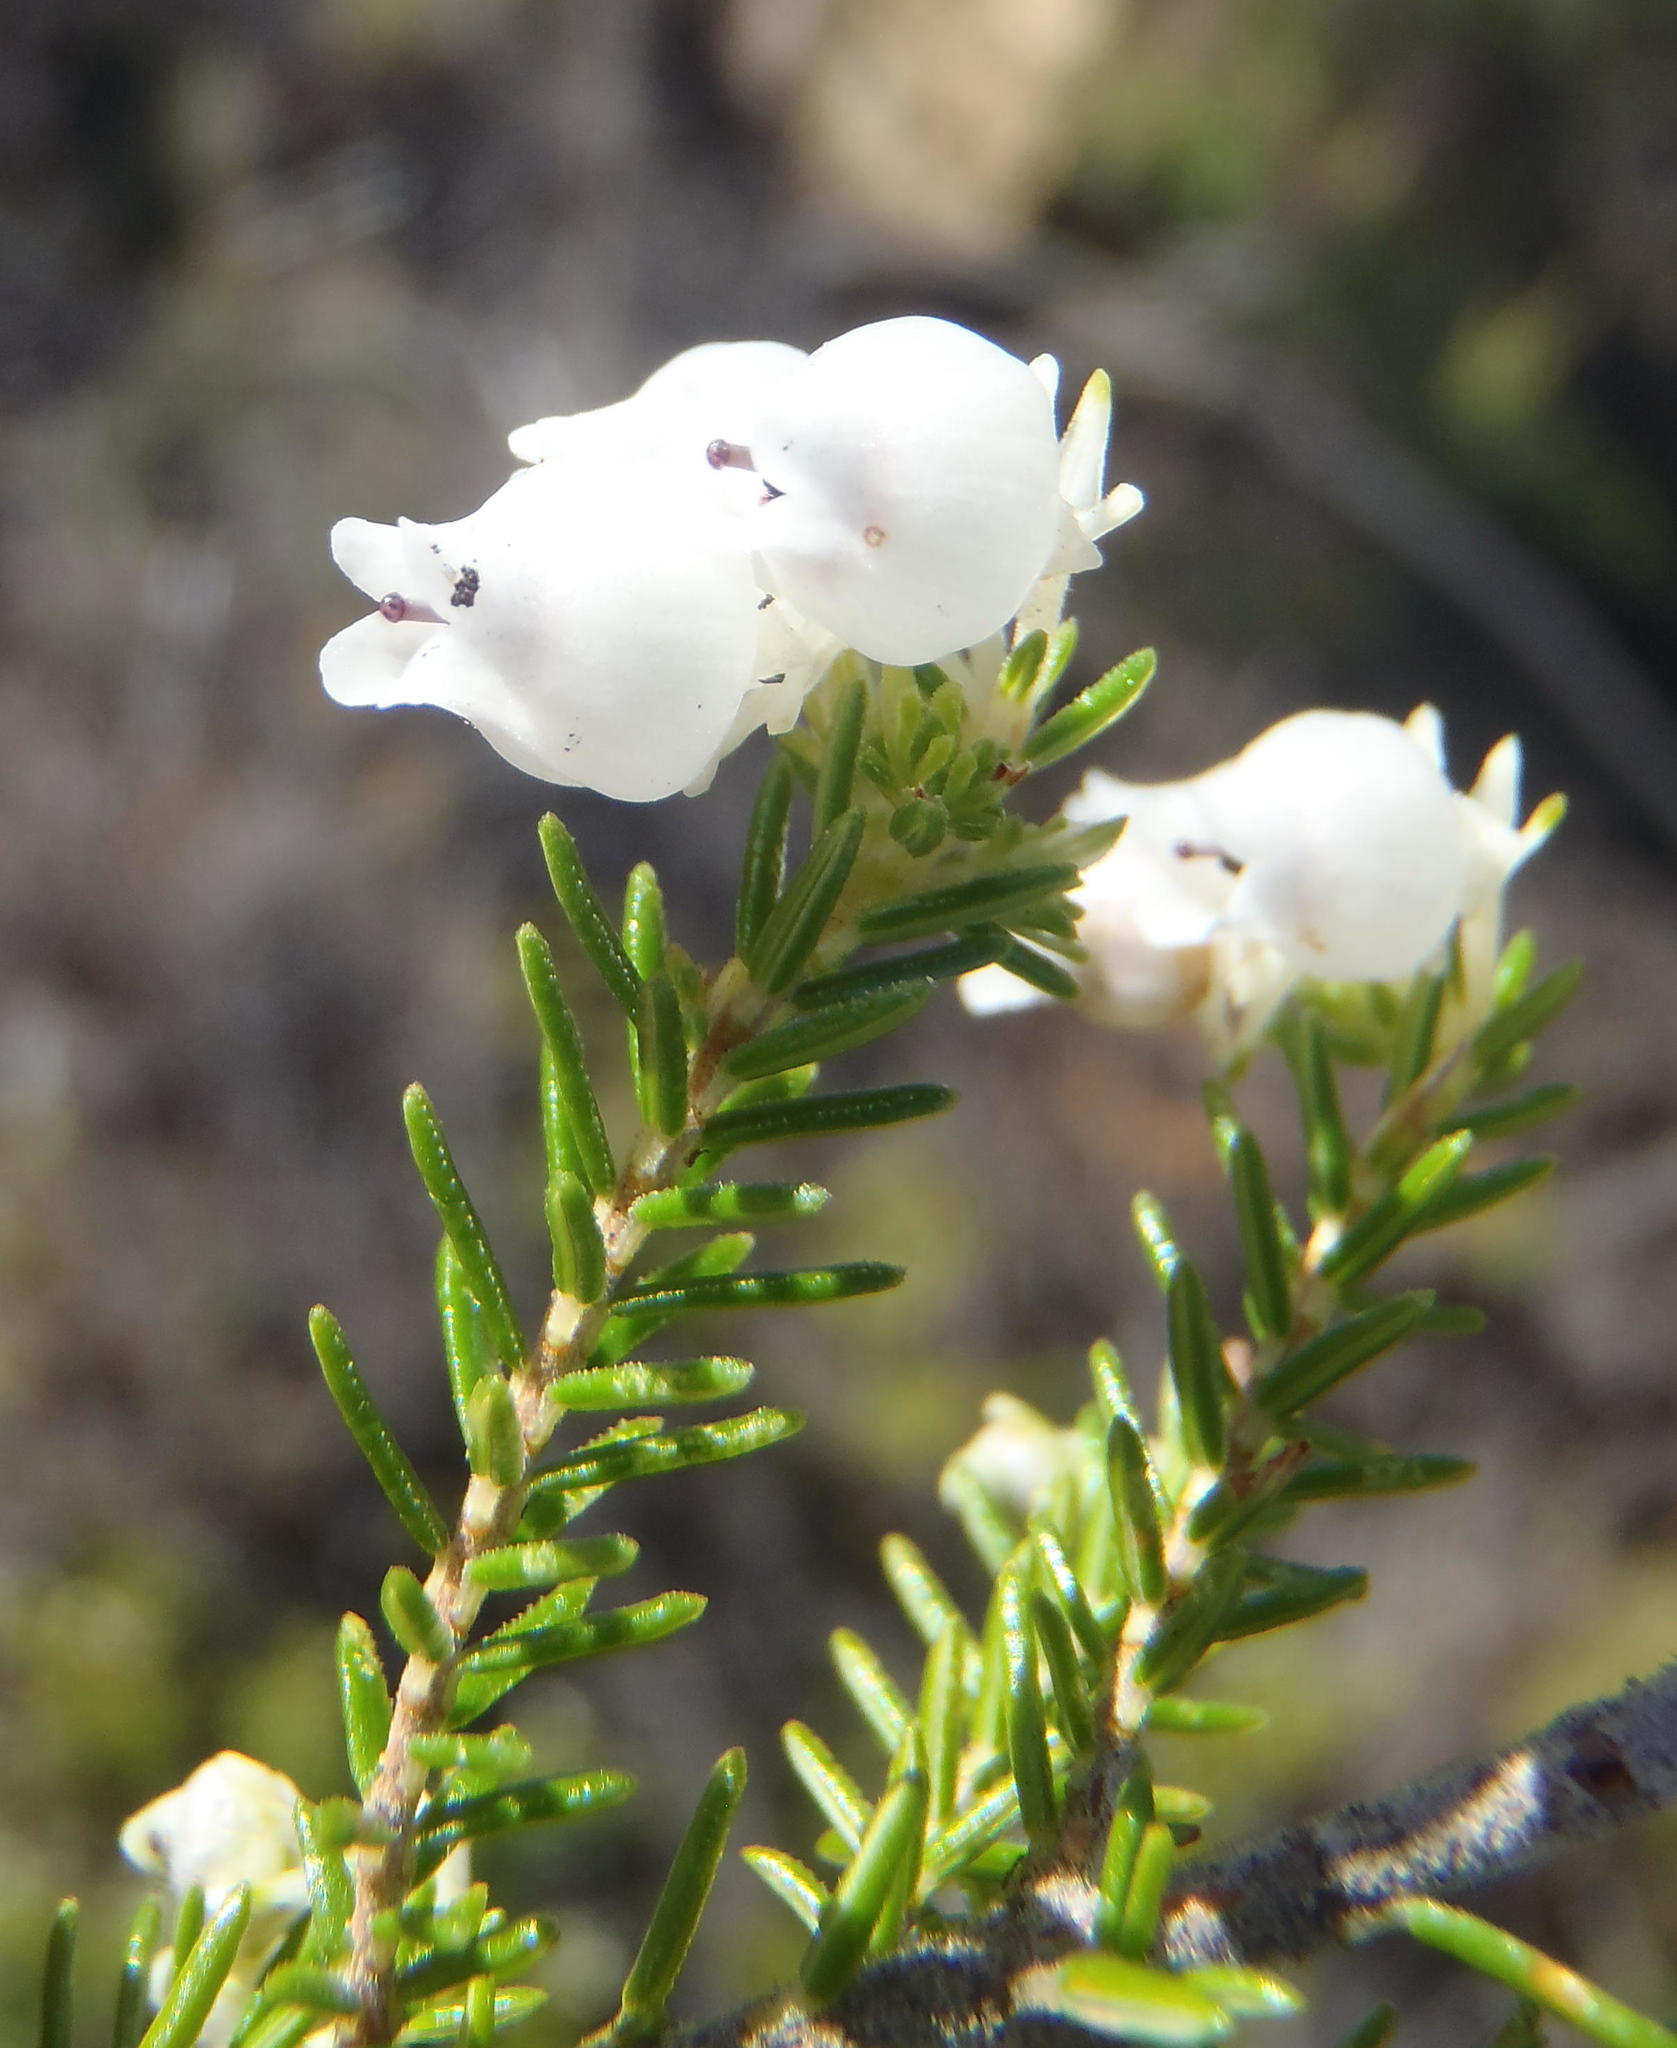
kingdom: Plantae
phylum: Tracheophyta
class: Magnoliopsida
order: Ericales
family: Ericaceae
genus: Erica
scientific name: Erica glomiflora
